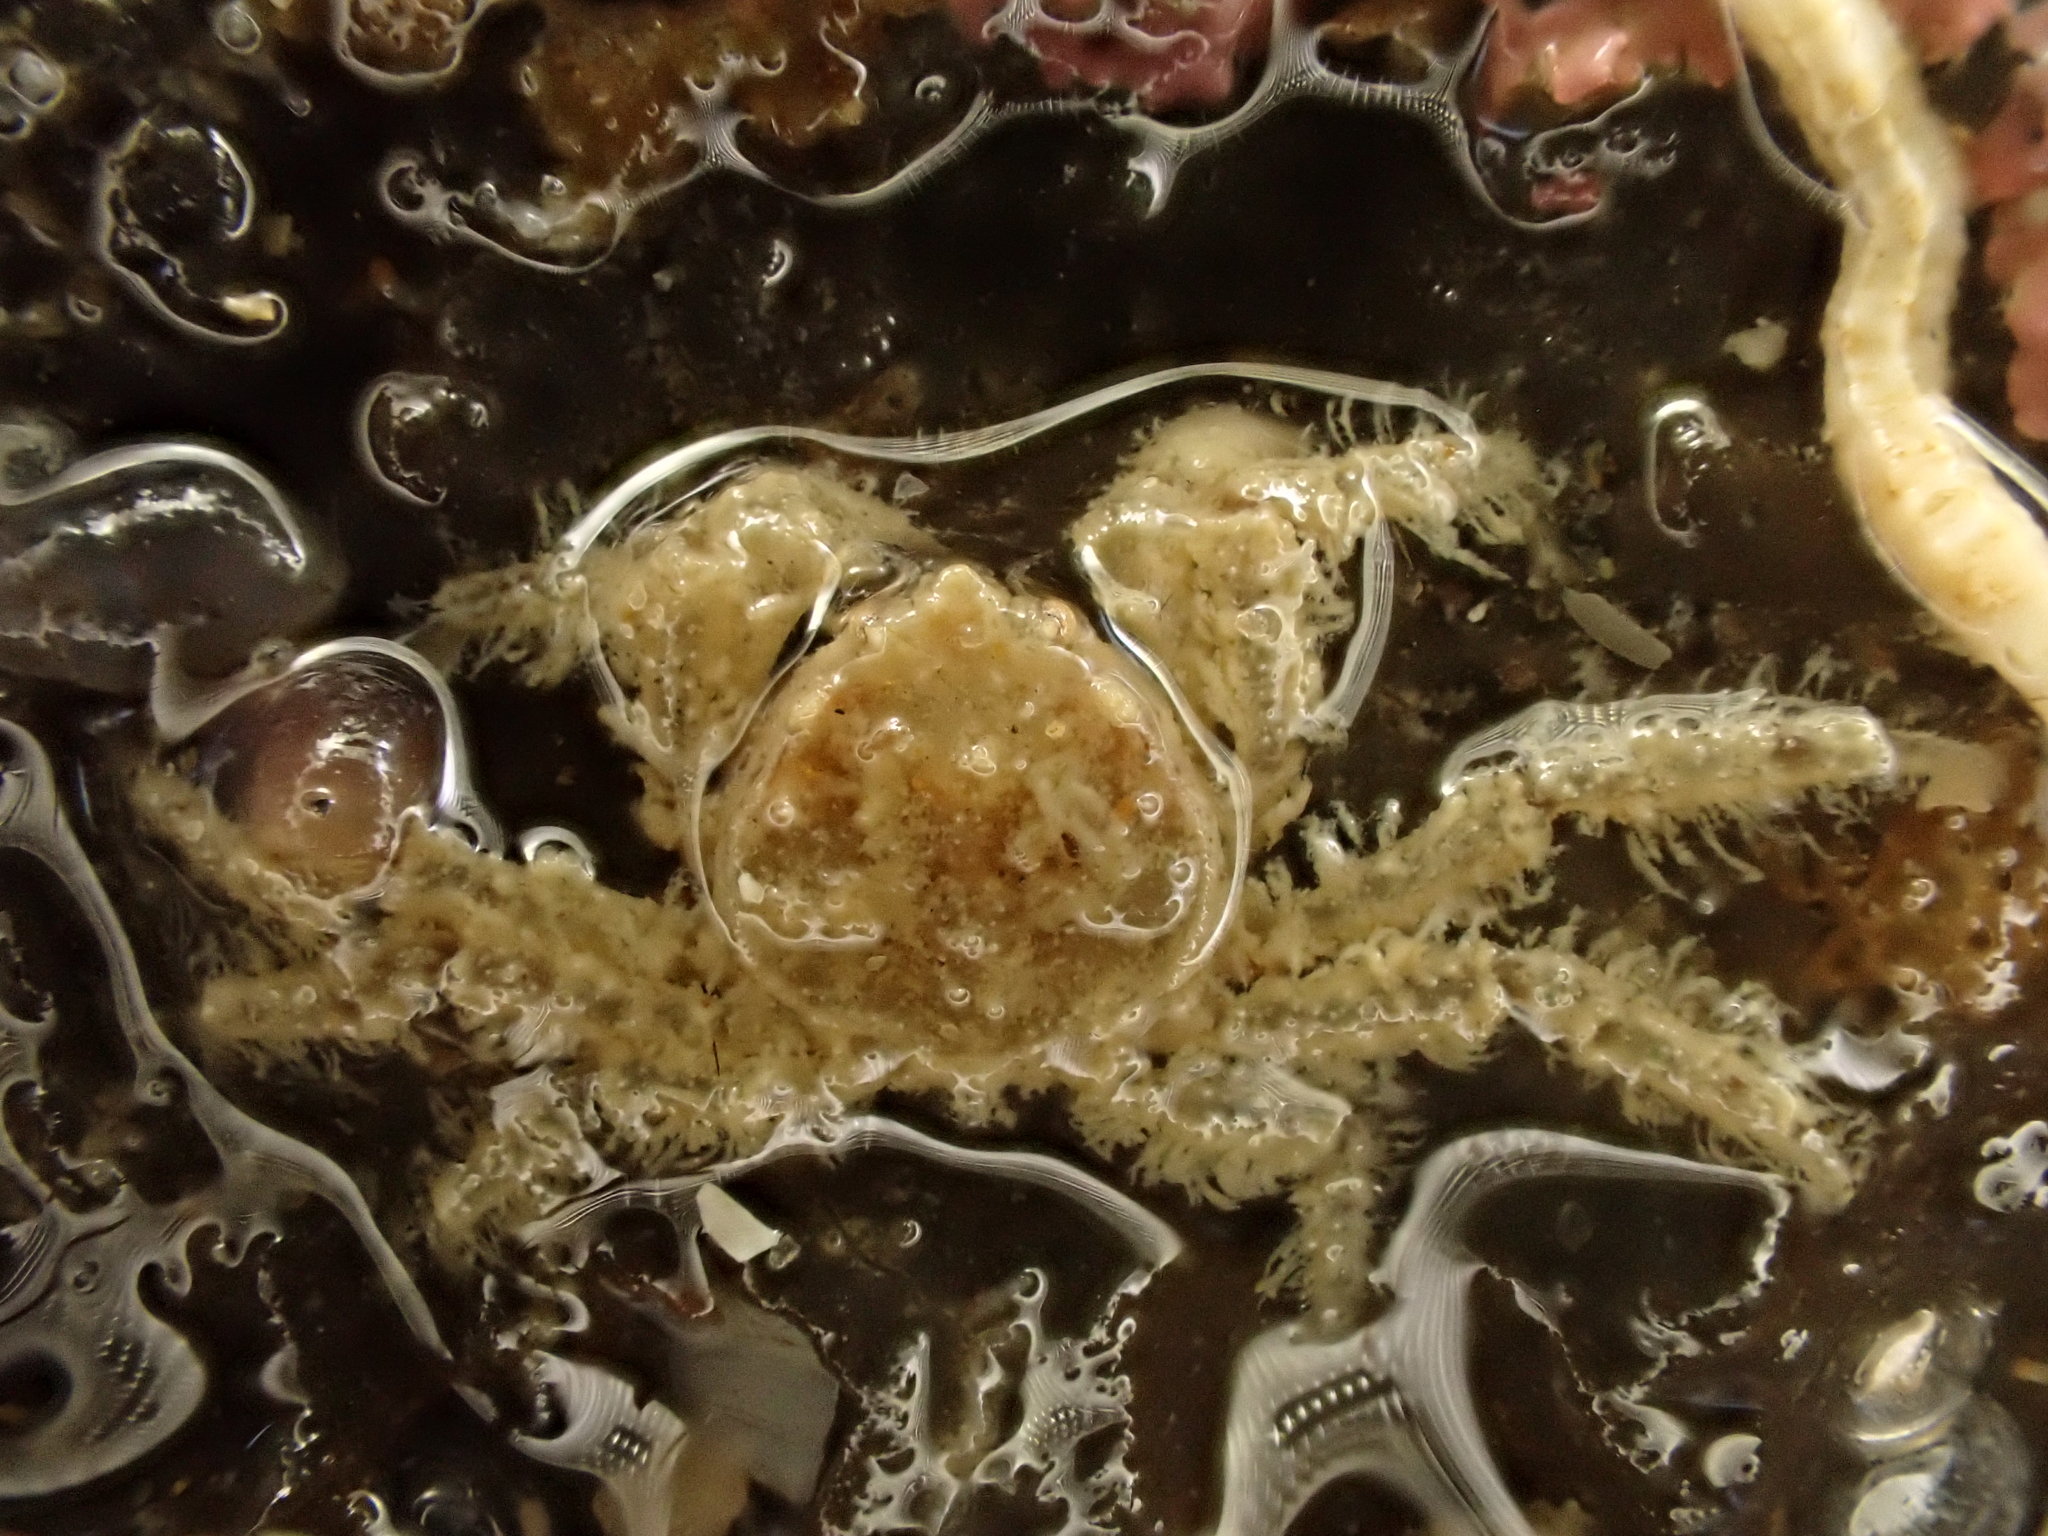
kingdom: Animalia
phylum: Arthropoda
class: Malacostraca
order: Decapoda
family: Hymenosomatidae
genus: Neohymenicus
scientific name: Neohymenicus pubescens
